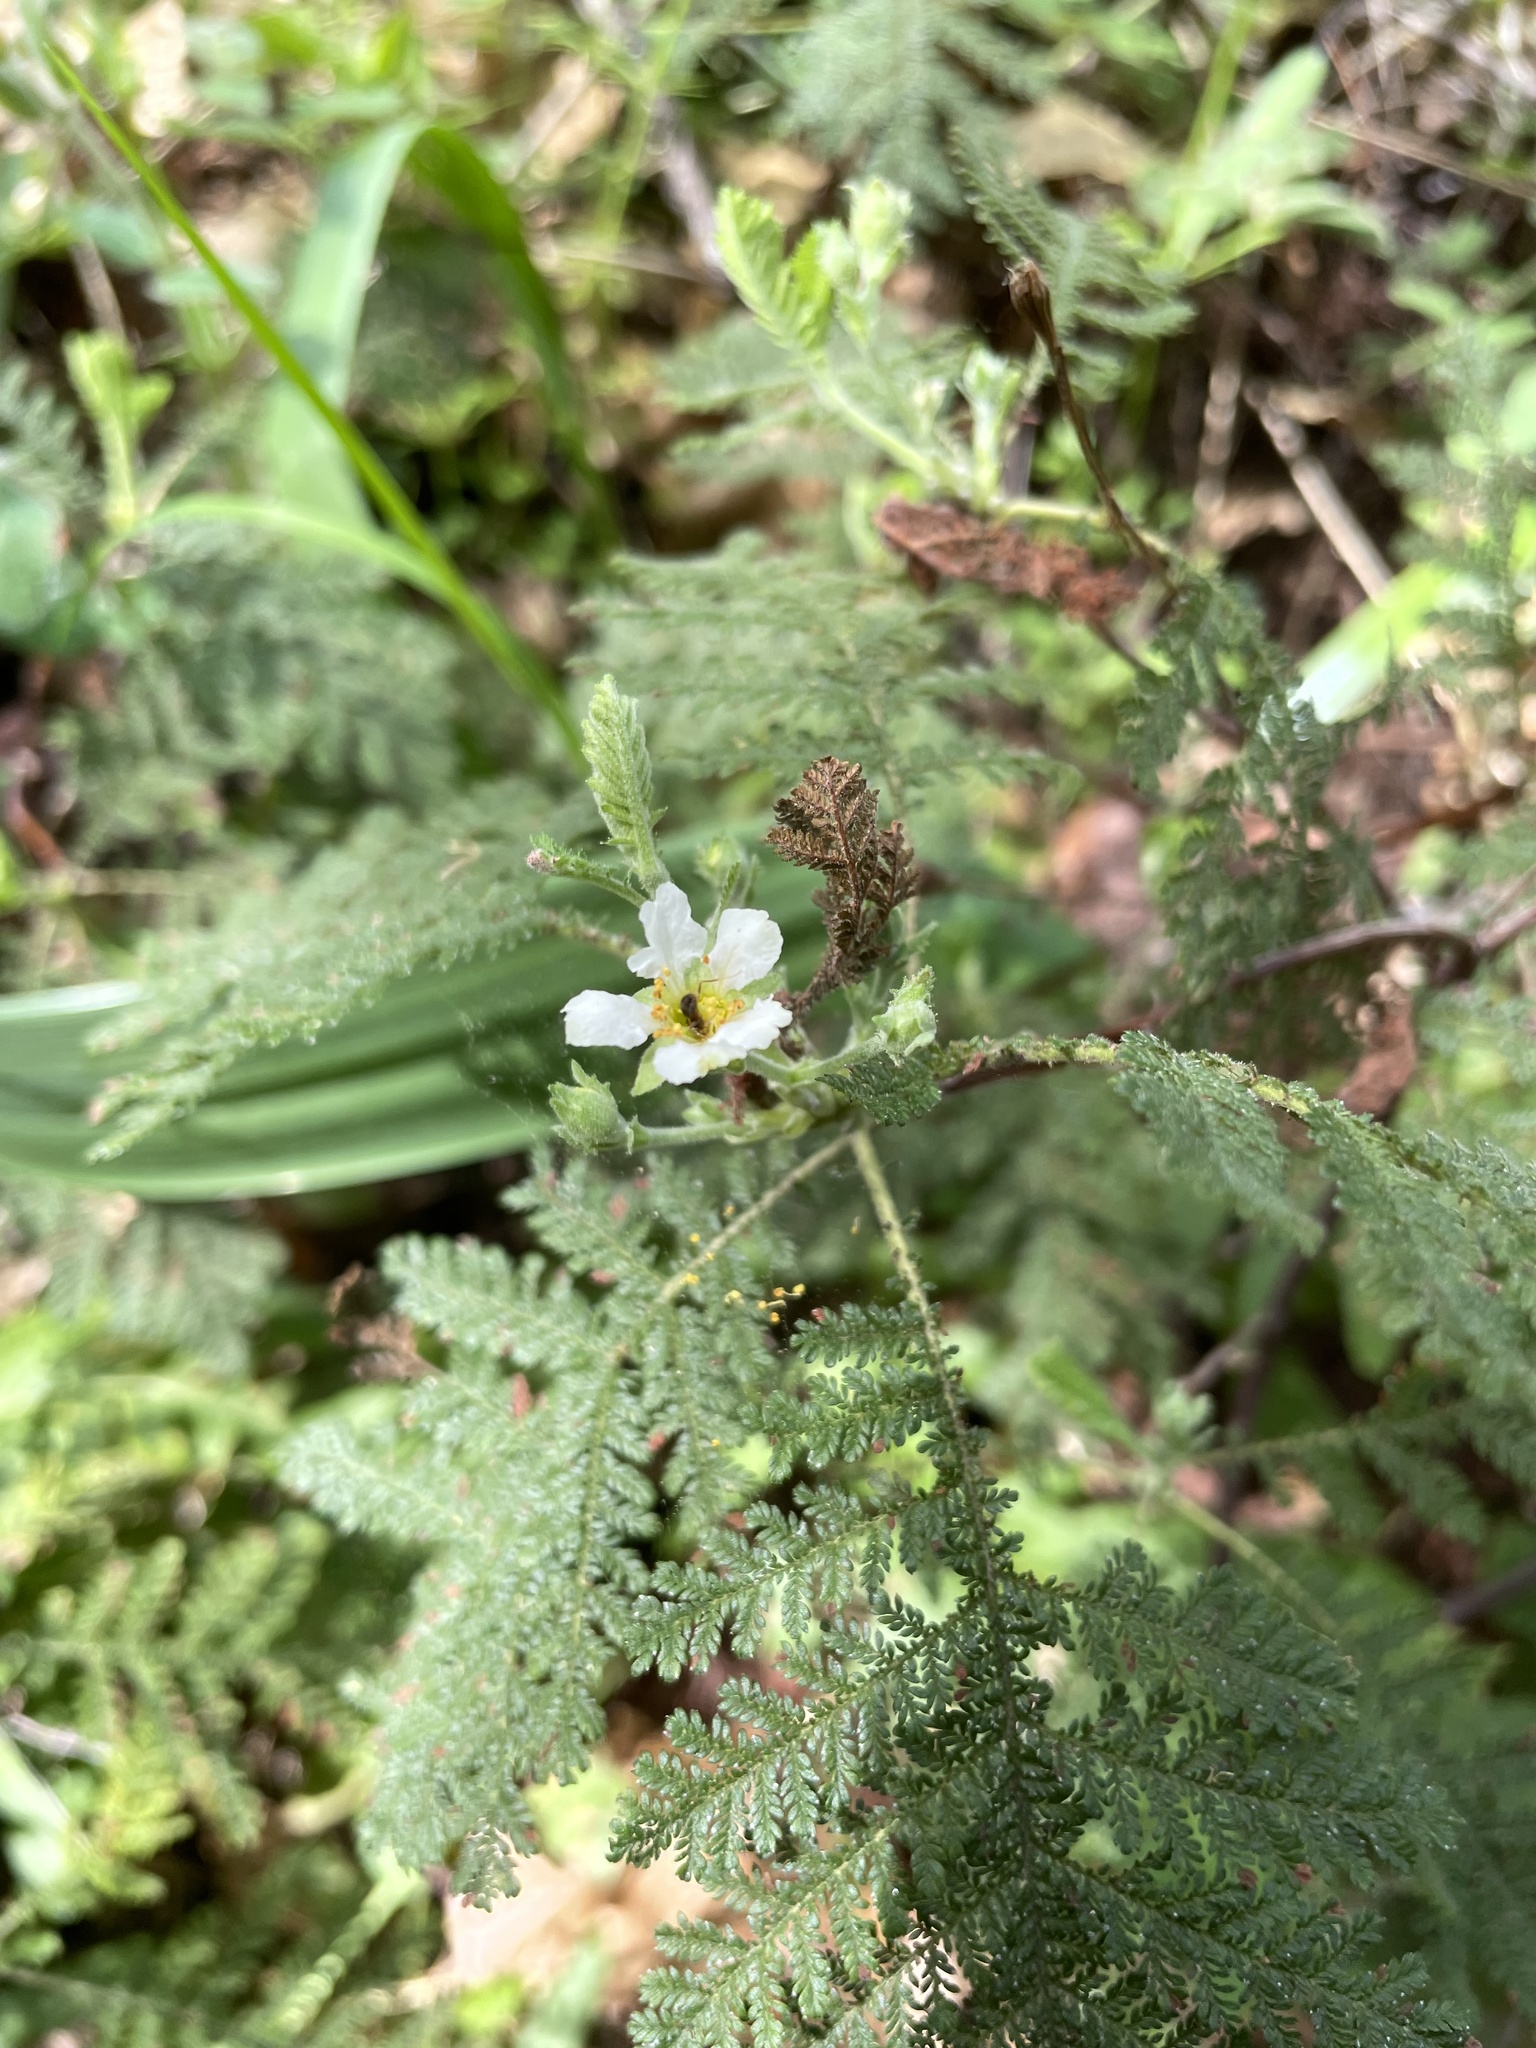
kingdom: Plantae
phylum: Tracheophyta
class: Magnoliopsida
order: Rosales
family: Rosaceae
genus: Chamaebatia
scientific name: Chamaebatia foliolosa
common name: Mountain misery
